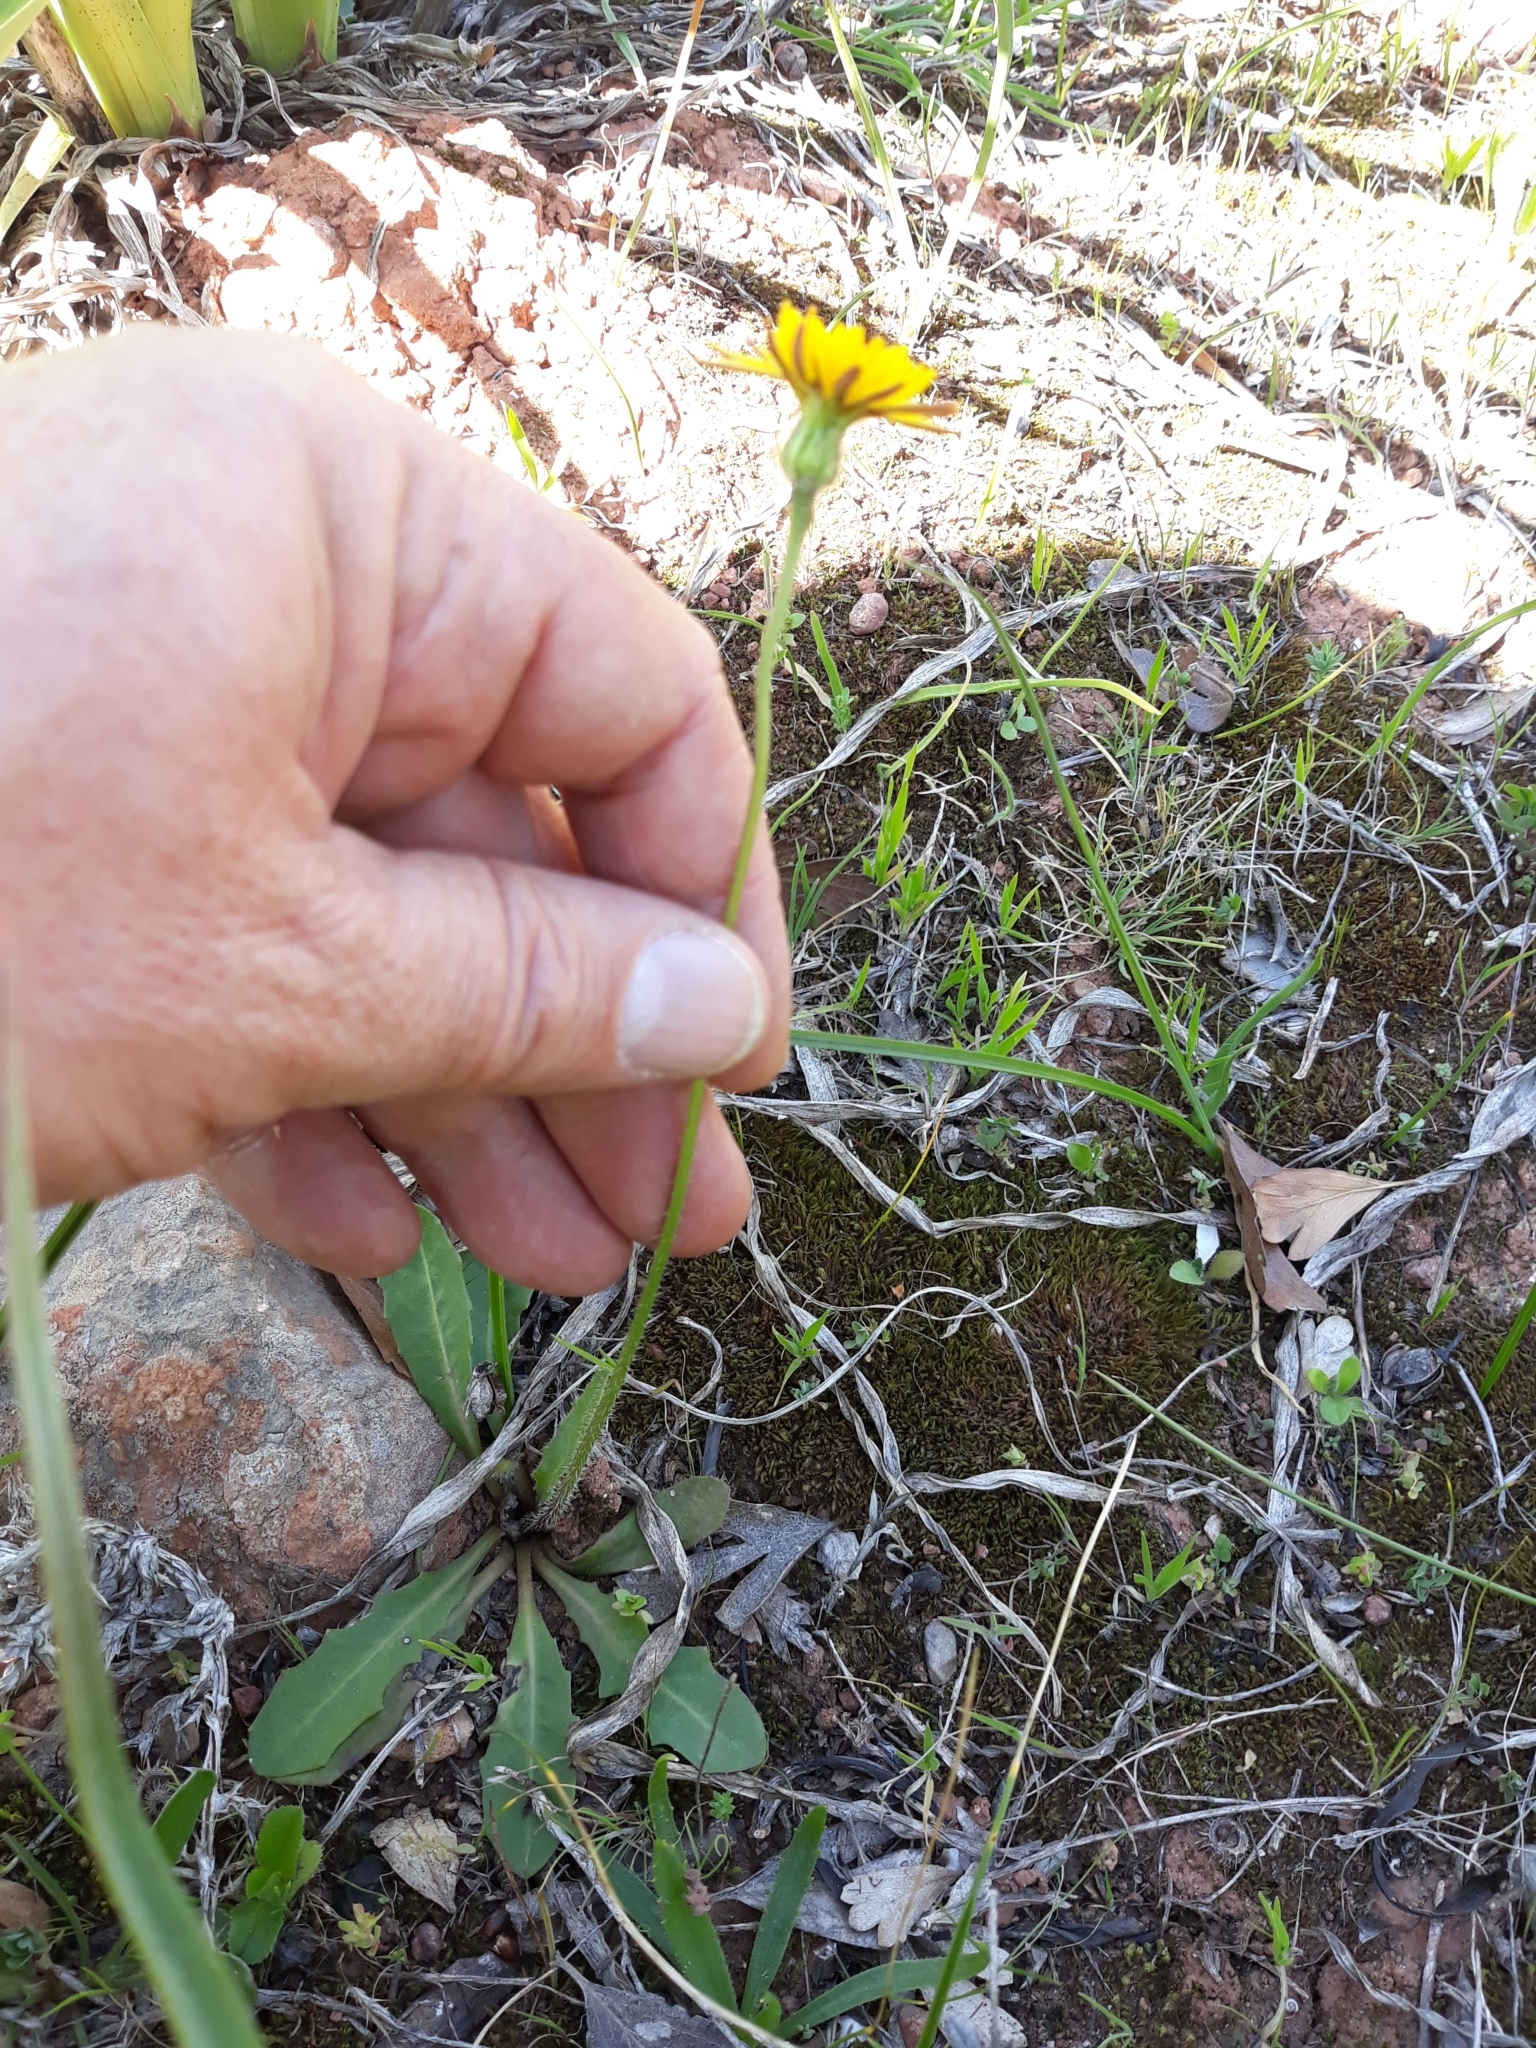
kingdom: Plantae
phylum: Tracheophyta
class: Magnoliopsida
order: Asterales
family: Asteraceae
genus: Leontodon
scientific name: Leontodon tuberosus
